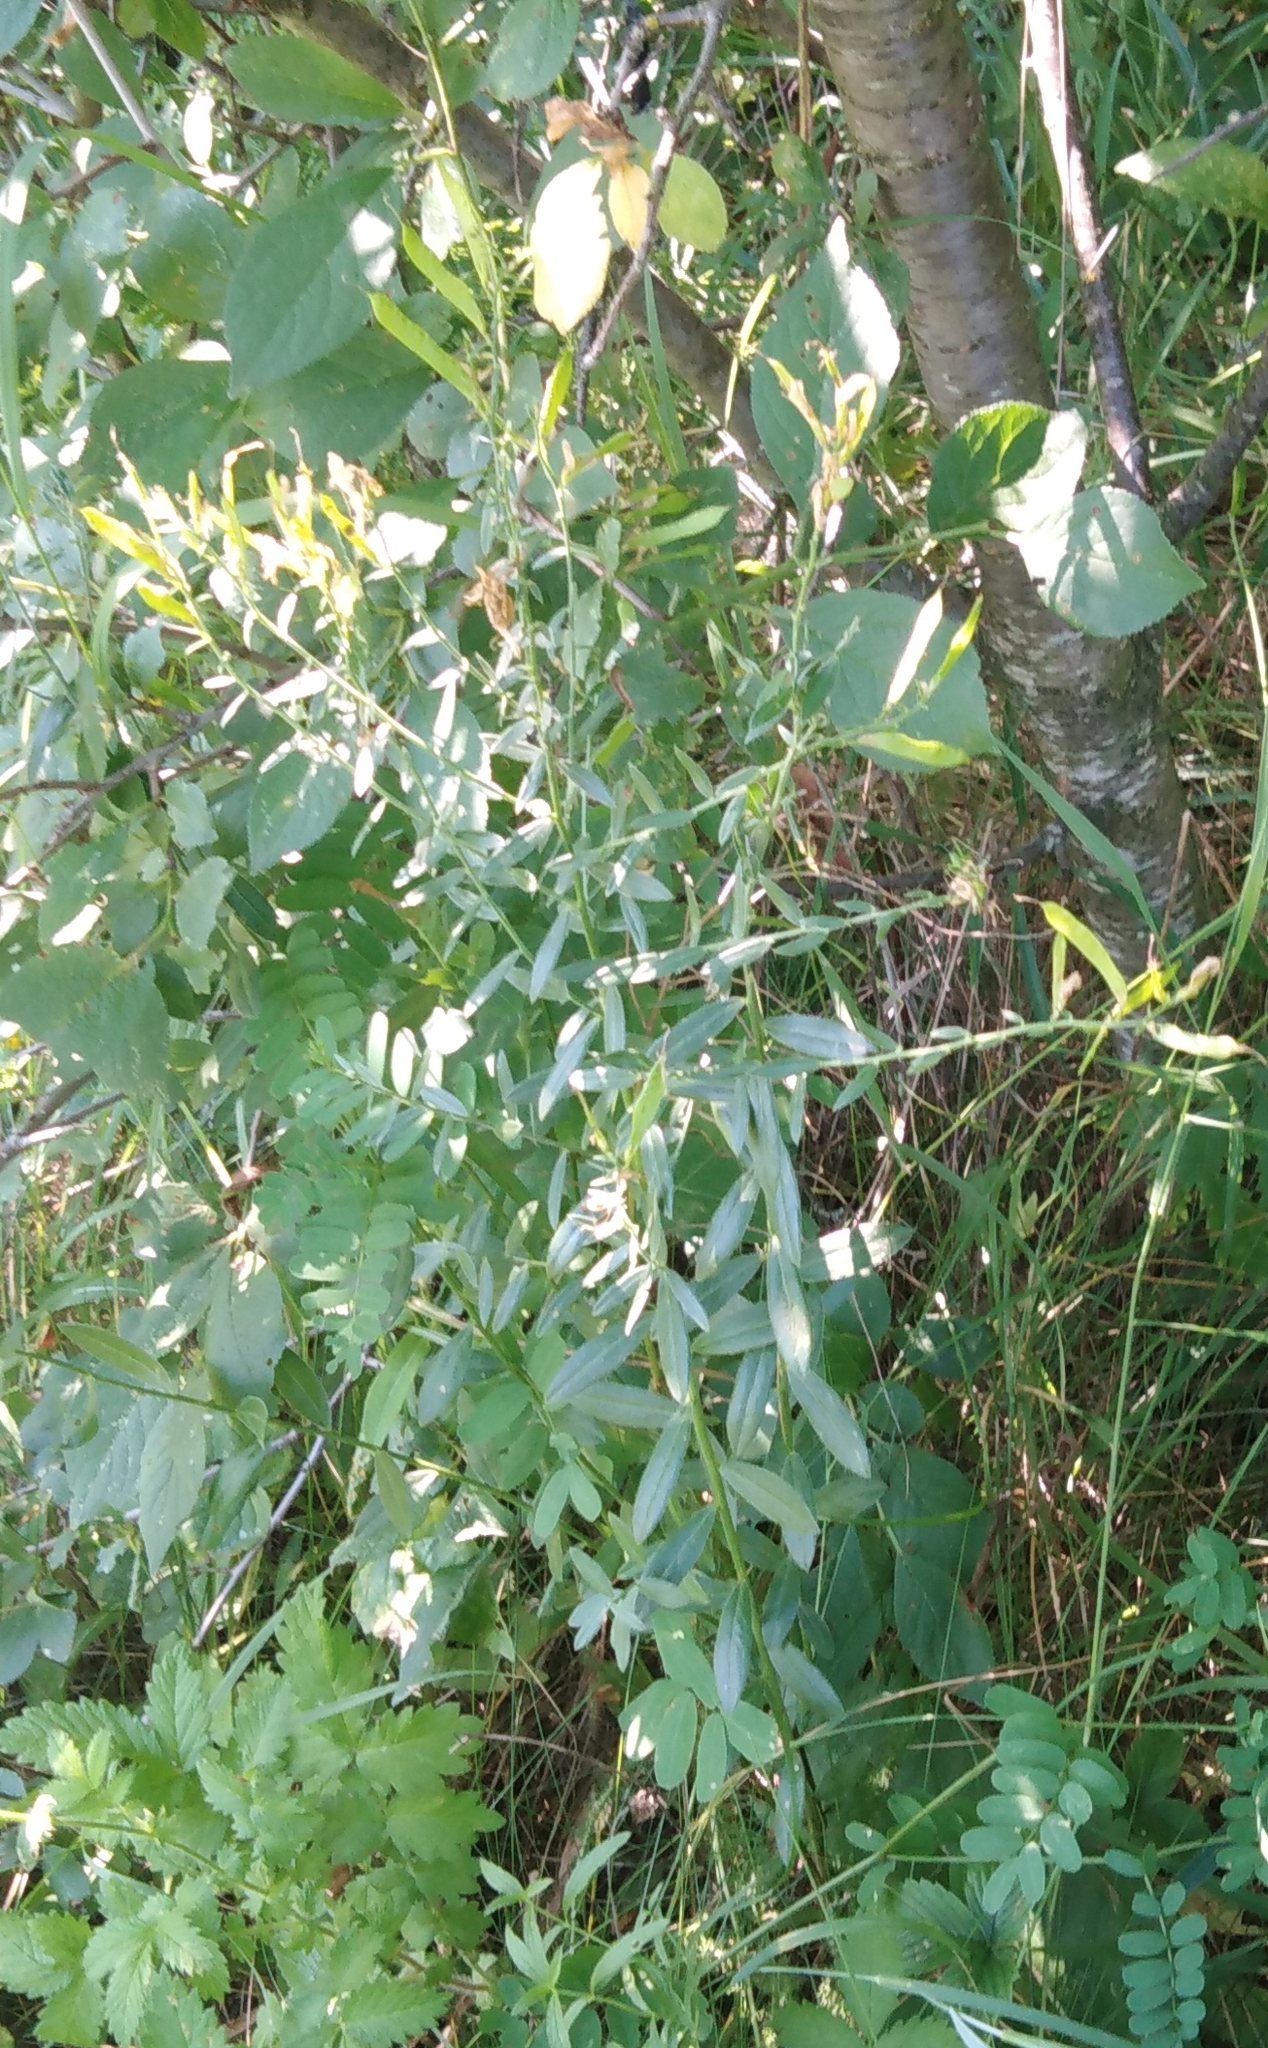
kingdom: Plantae
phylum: Tracheophyta
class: Magnoliopsida
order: Fabales
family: Fabaceae
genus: Genista
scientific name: Genista tinctoria
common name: Dyer's greenweed
